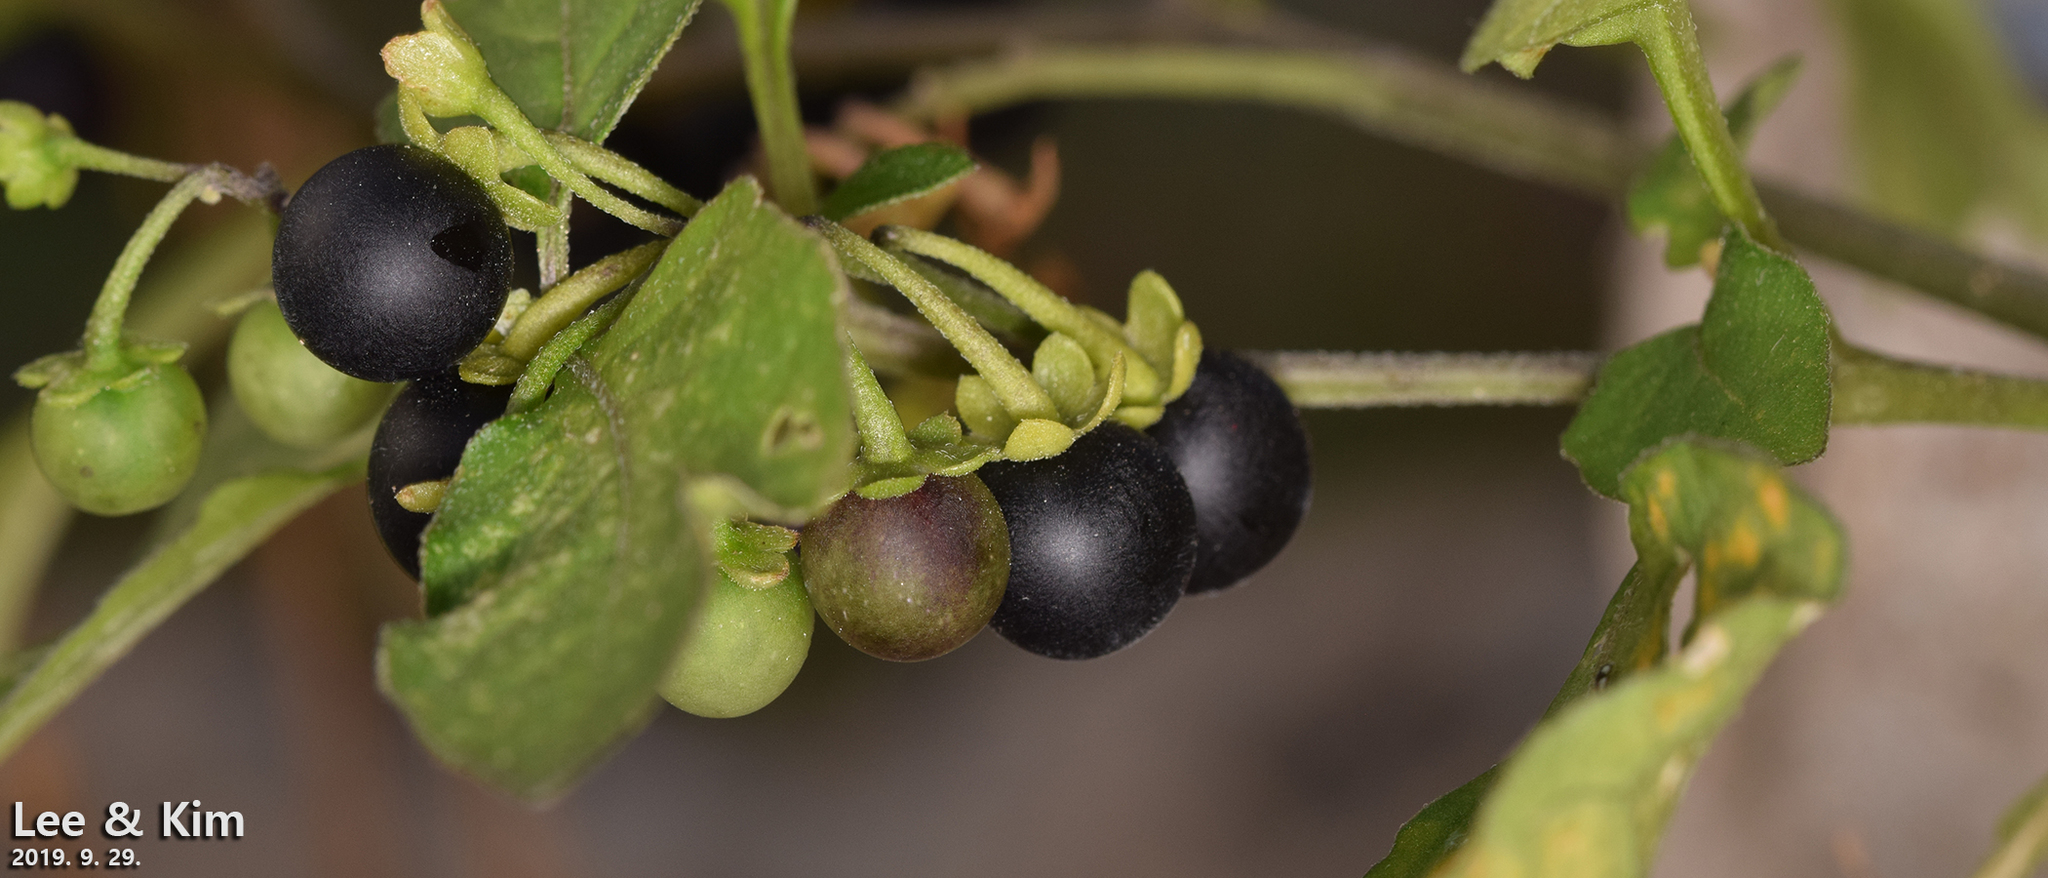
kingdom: Plantae
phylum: Tracheophyta
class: Magnoliopsida
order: Solanales
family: Solanaceae
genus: Solanum
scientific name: Solanum nigrum
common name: Black nightshade
